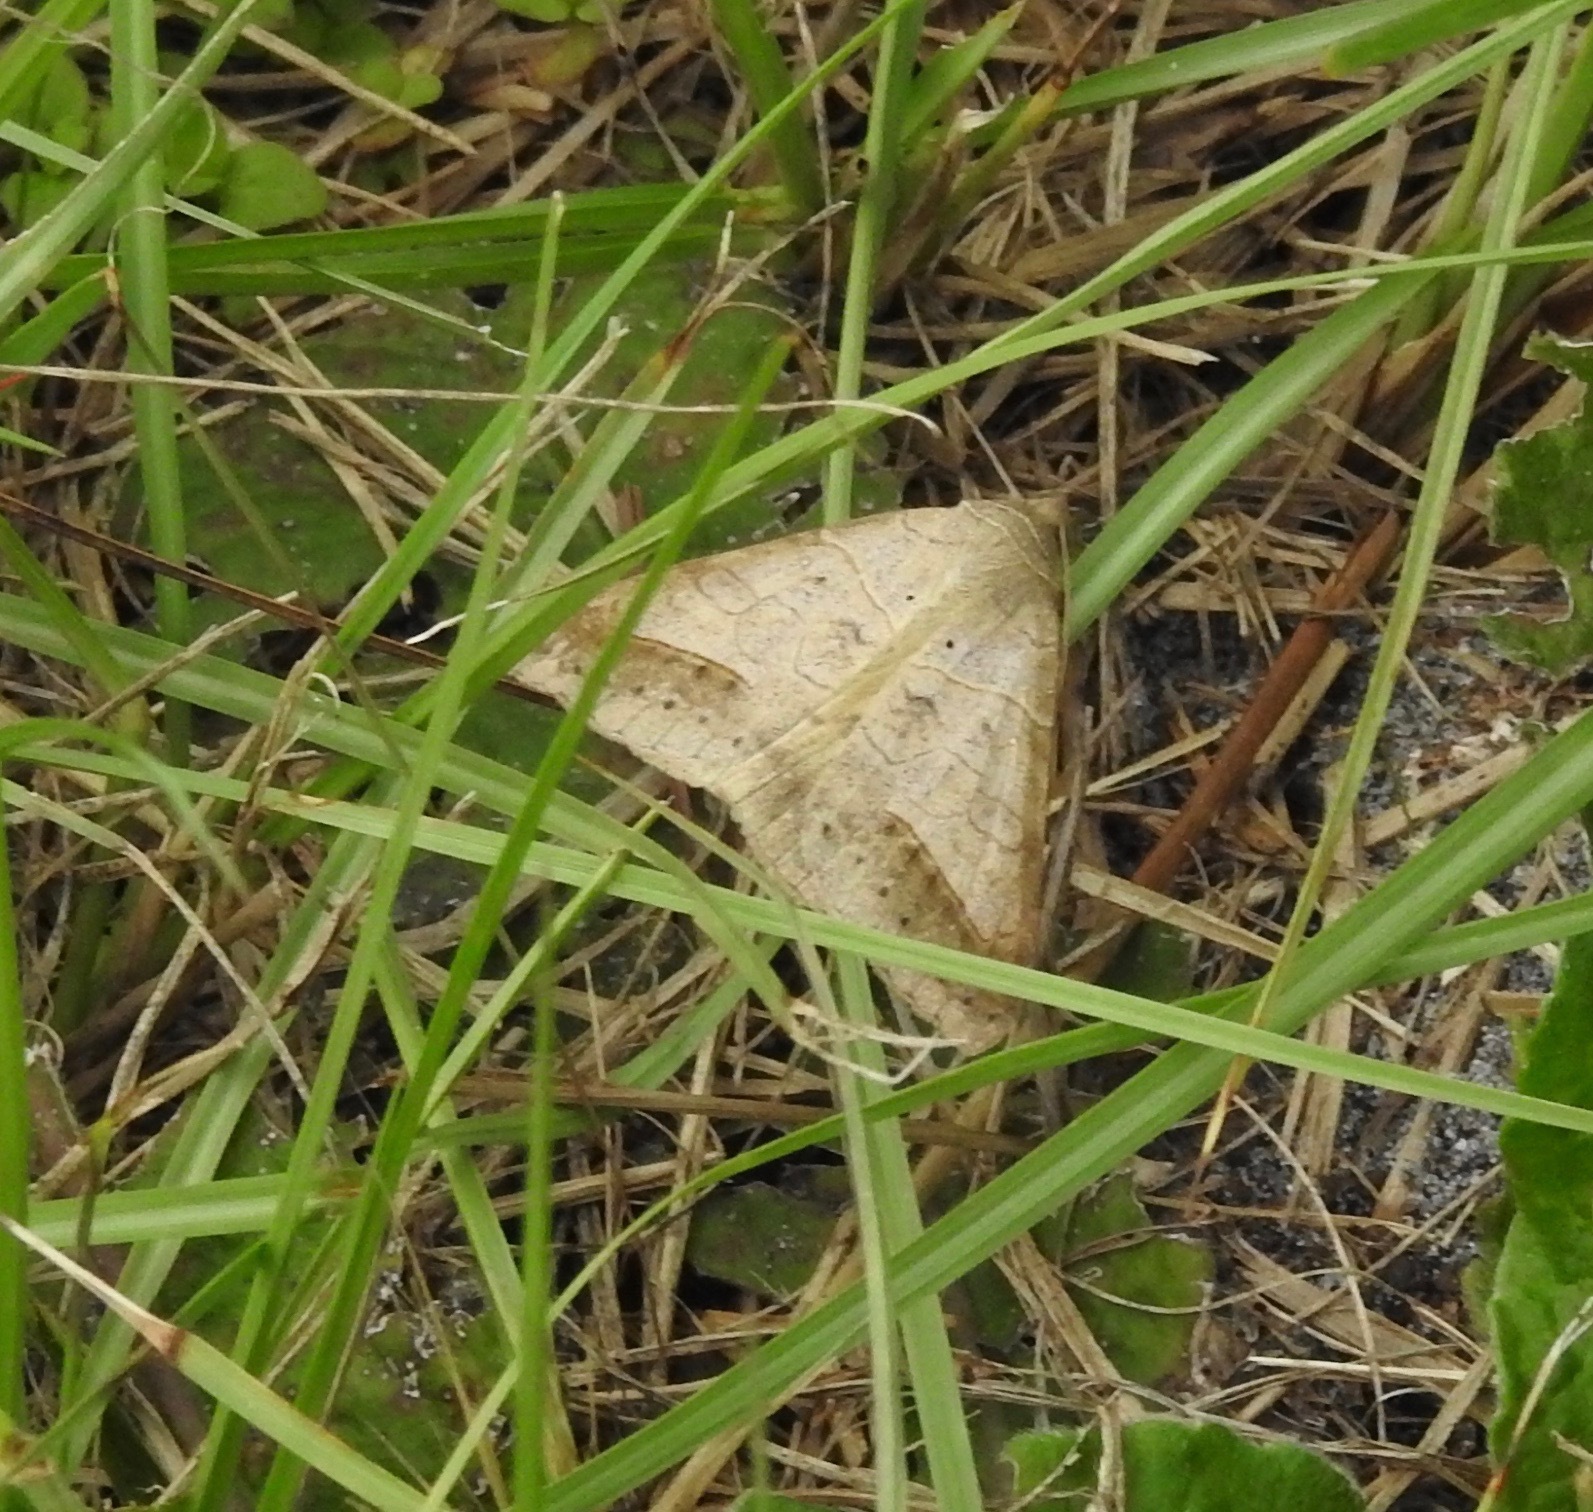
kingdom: Animalia
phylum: Arthropoda
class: Insecta
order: Lepidoptera
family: Erebidae
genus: Mocis
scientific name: Mocis marcida
